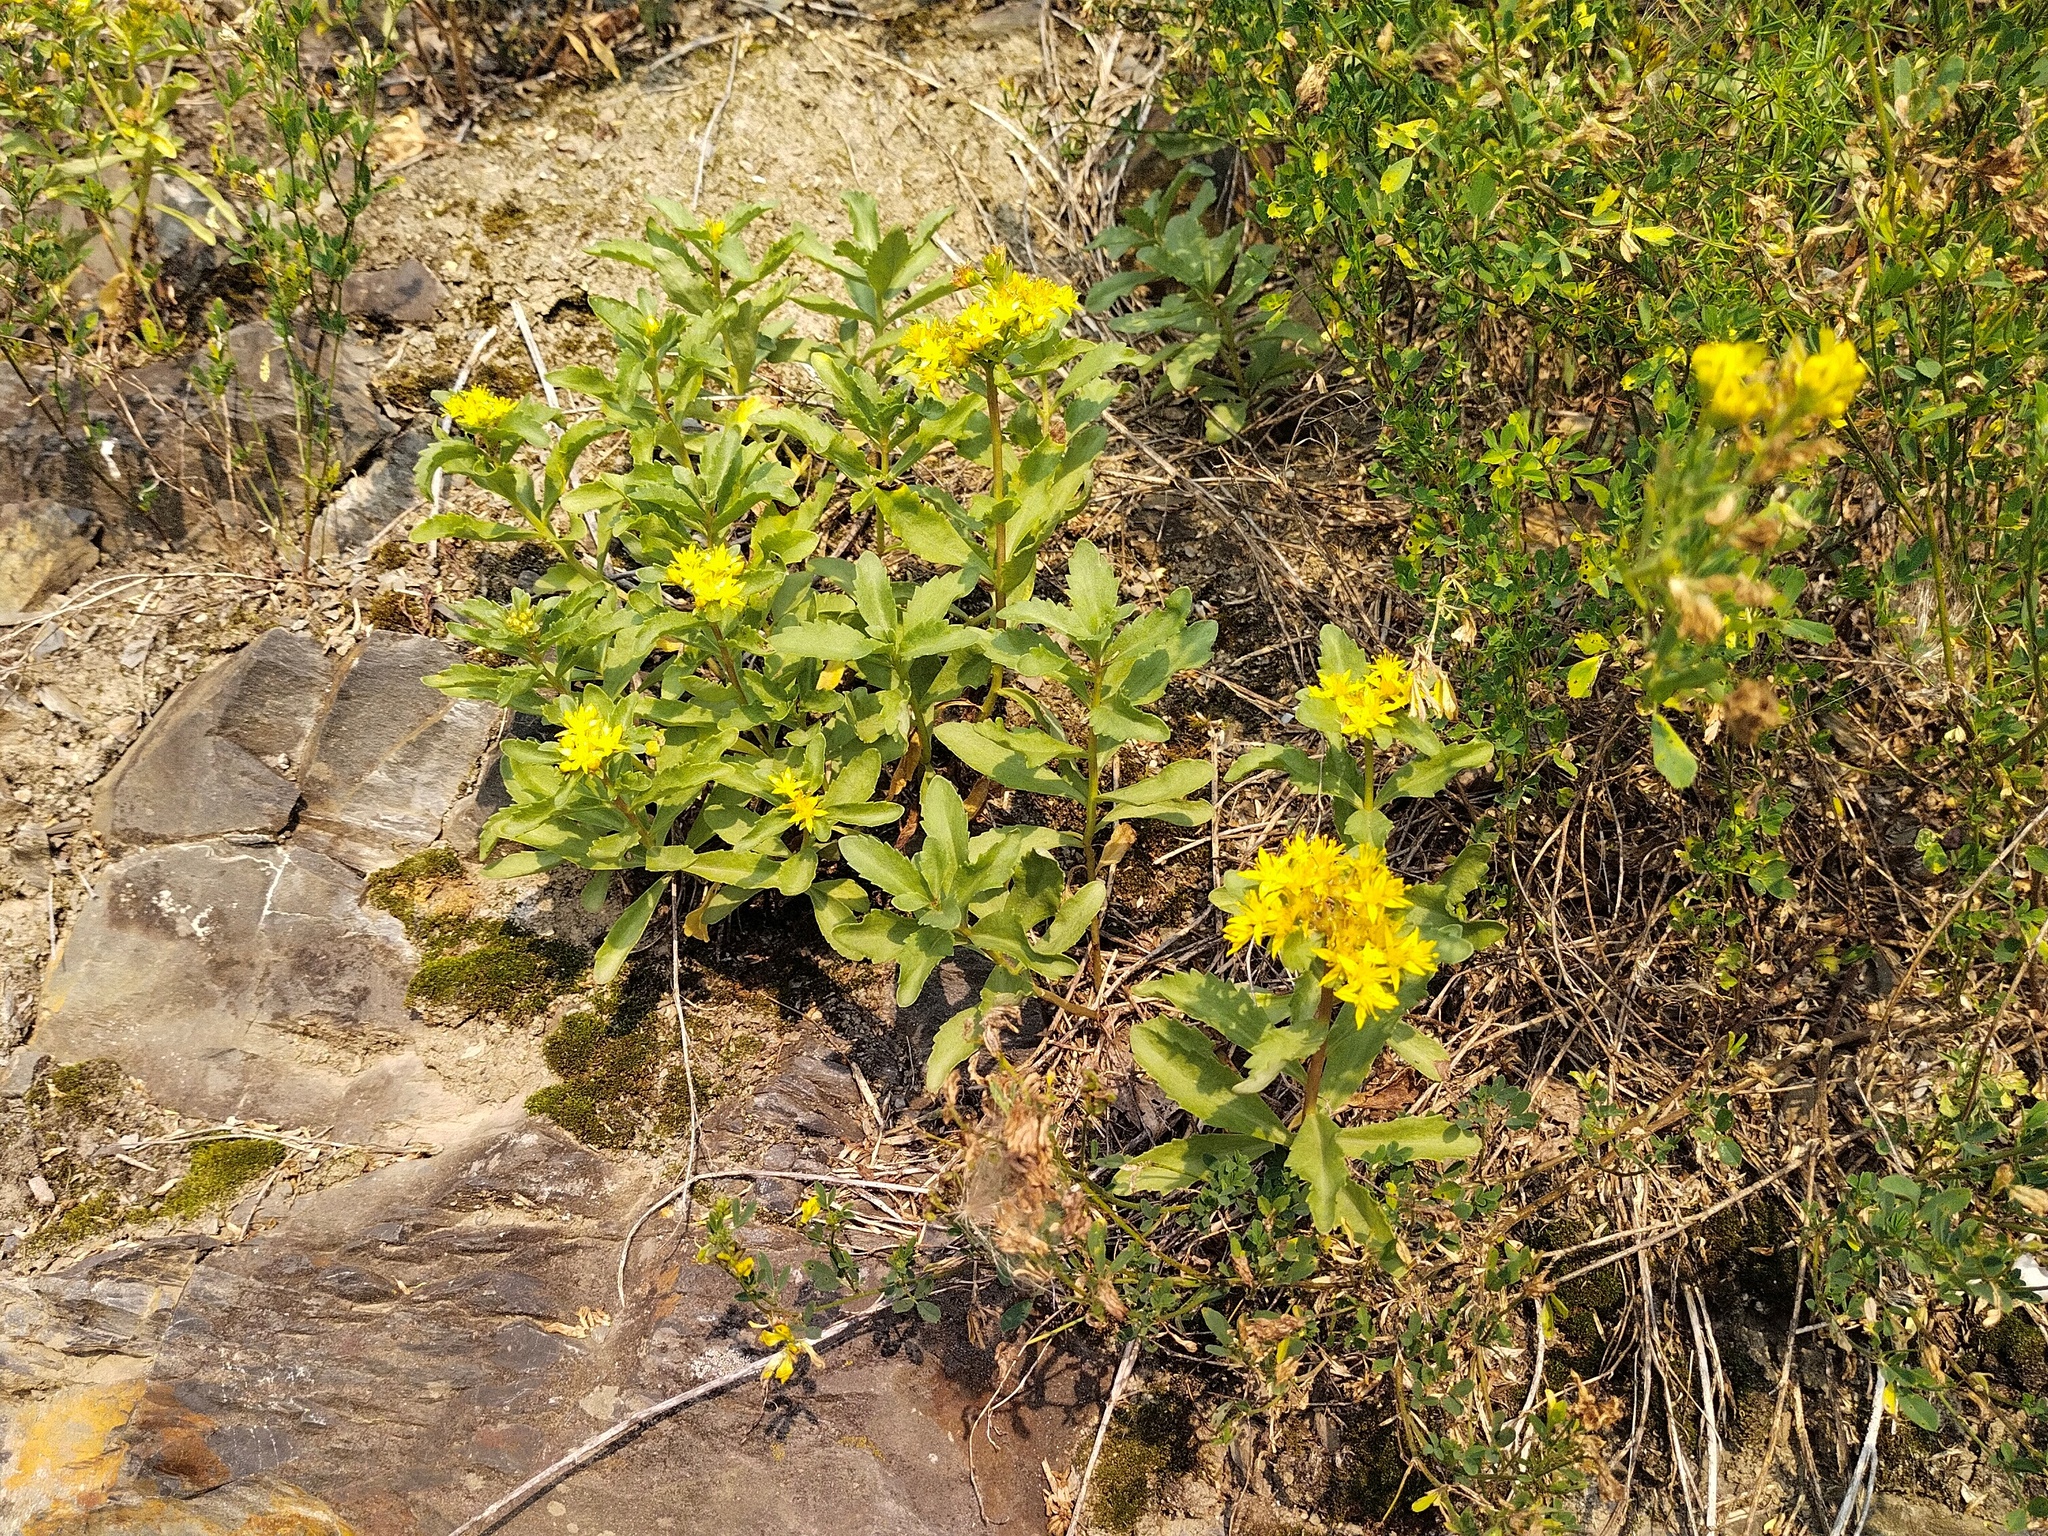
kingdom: Plantae
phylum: Tracheophyta
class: Magnoliopsida
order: Saxifragales
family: Crassulaceae
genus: Phedimus
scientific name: Phedimus hybridus
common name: Hybrid stonecrop
